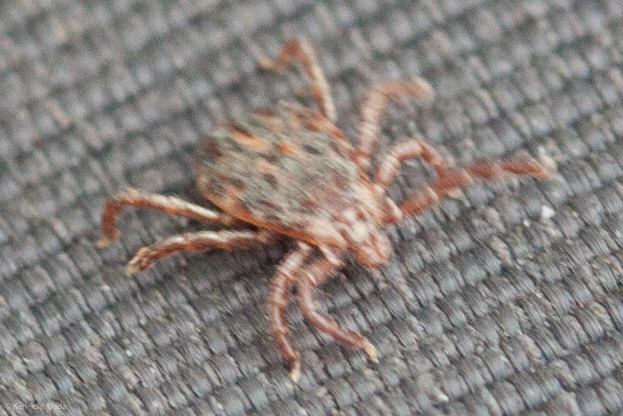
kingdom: Animalia
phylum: Arthropoda
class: Arachnida
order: Ixodida
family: Ixodidae
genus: Dermacentor
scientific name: Dermacentor occidentalis
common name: Net tick
